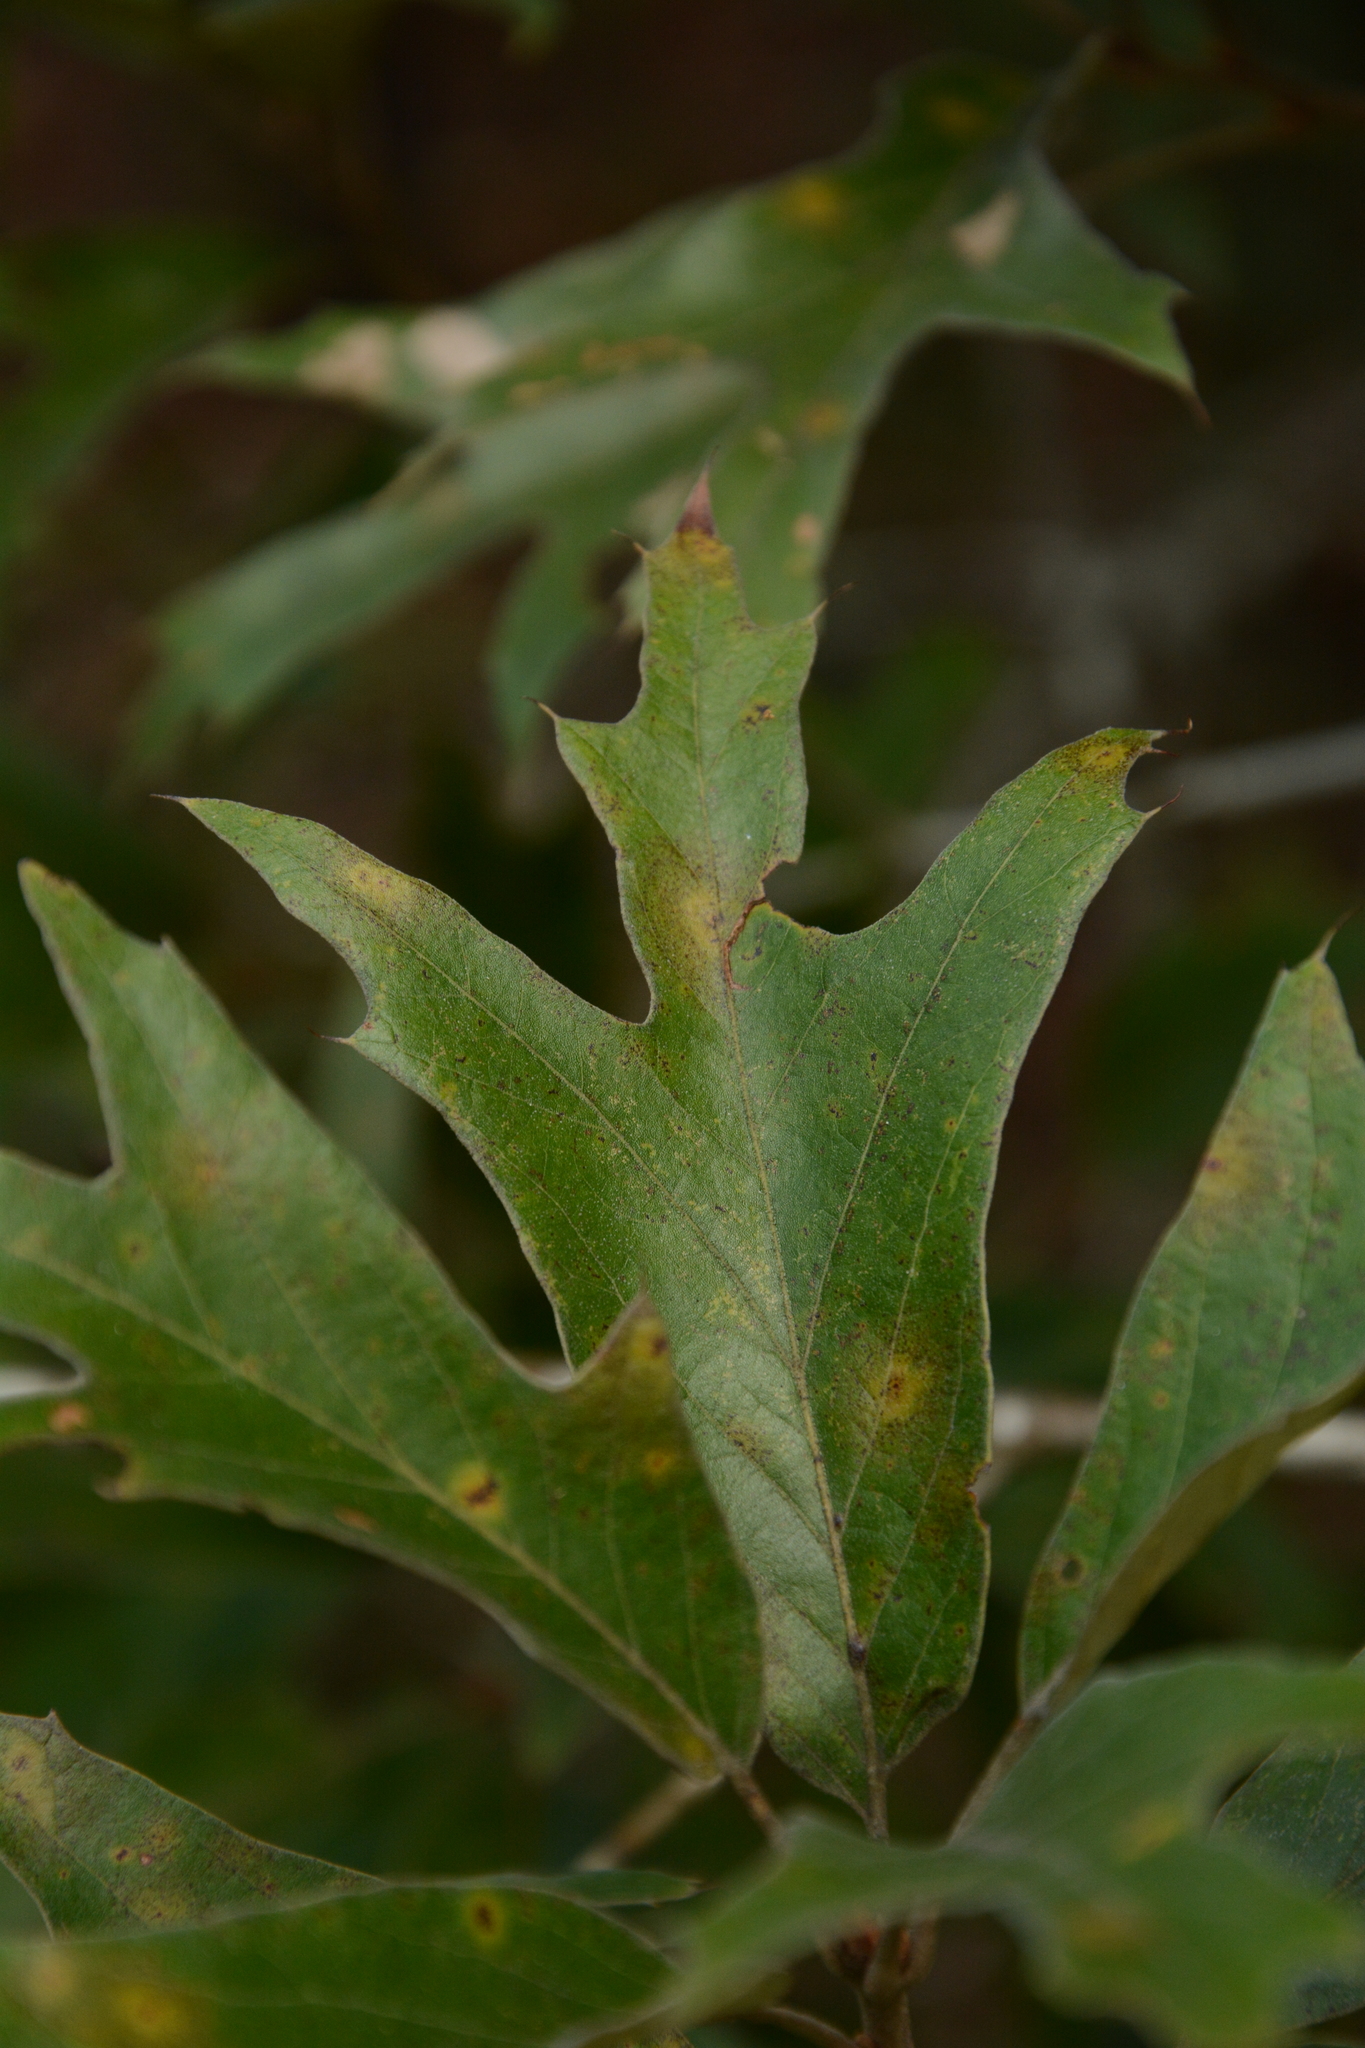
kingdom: Plantae
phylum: Tracheophyta
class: Magnoliopsida
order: Fagales
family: Fagaceae
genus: Quercus
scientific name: Quercus falcata
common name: Southern red oak
